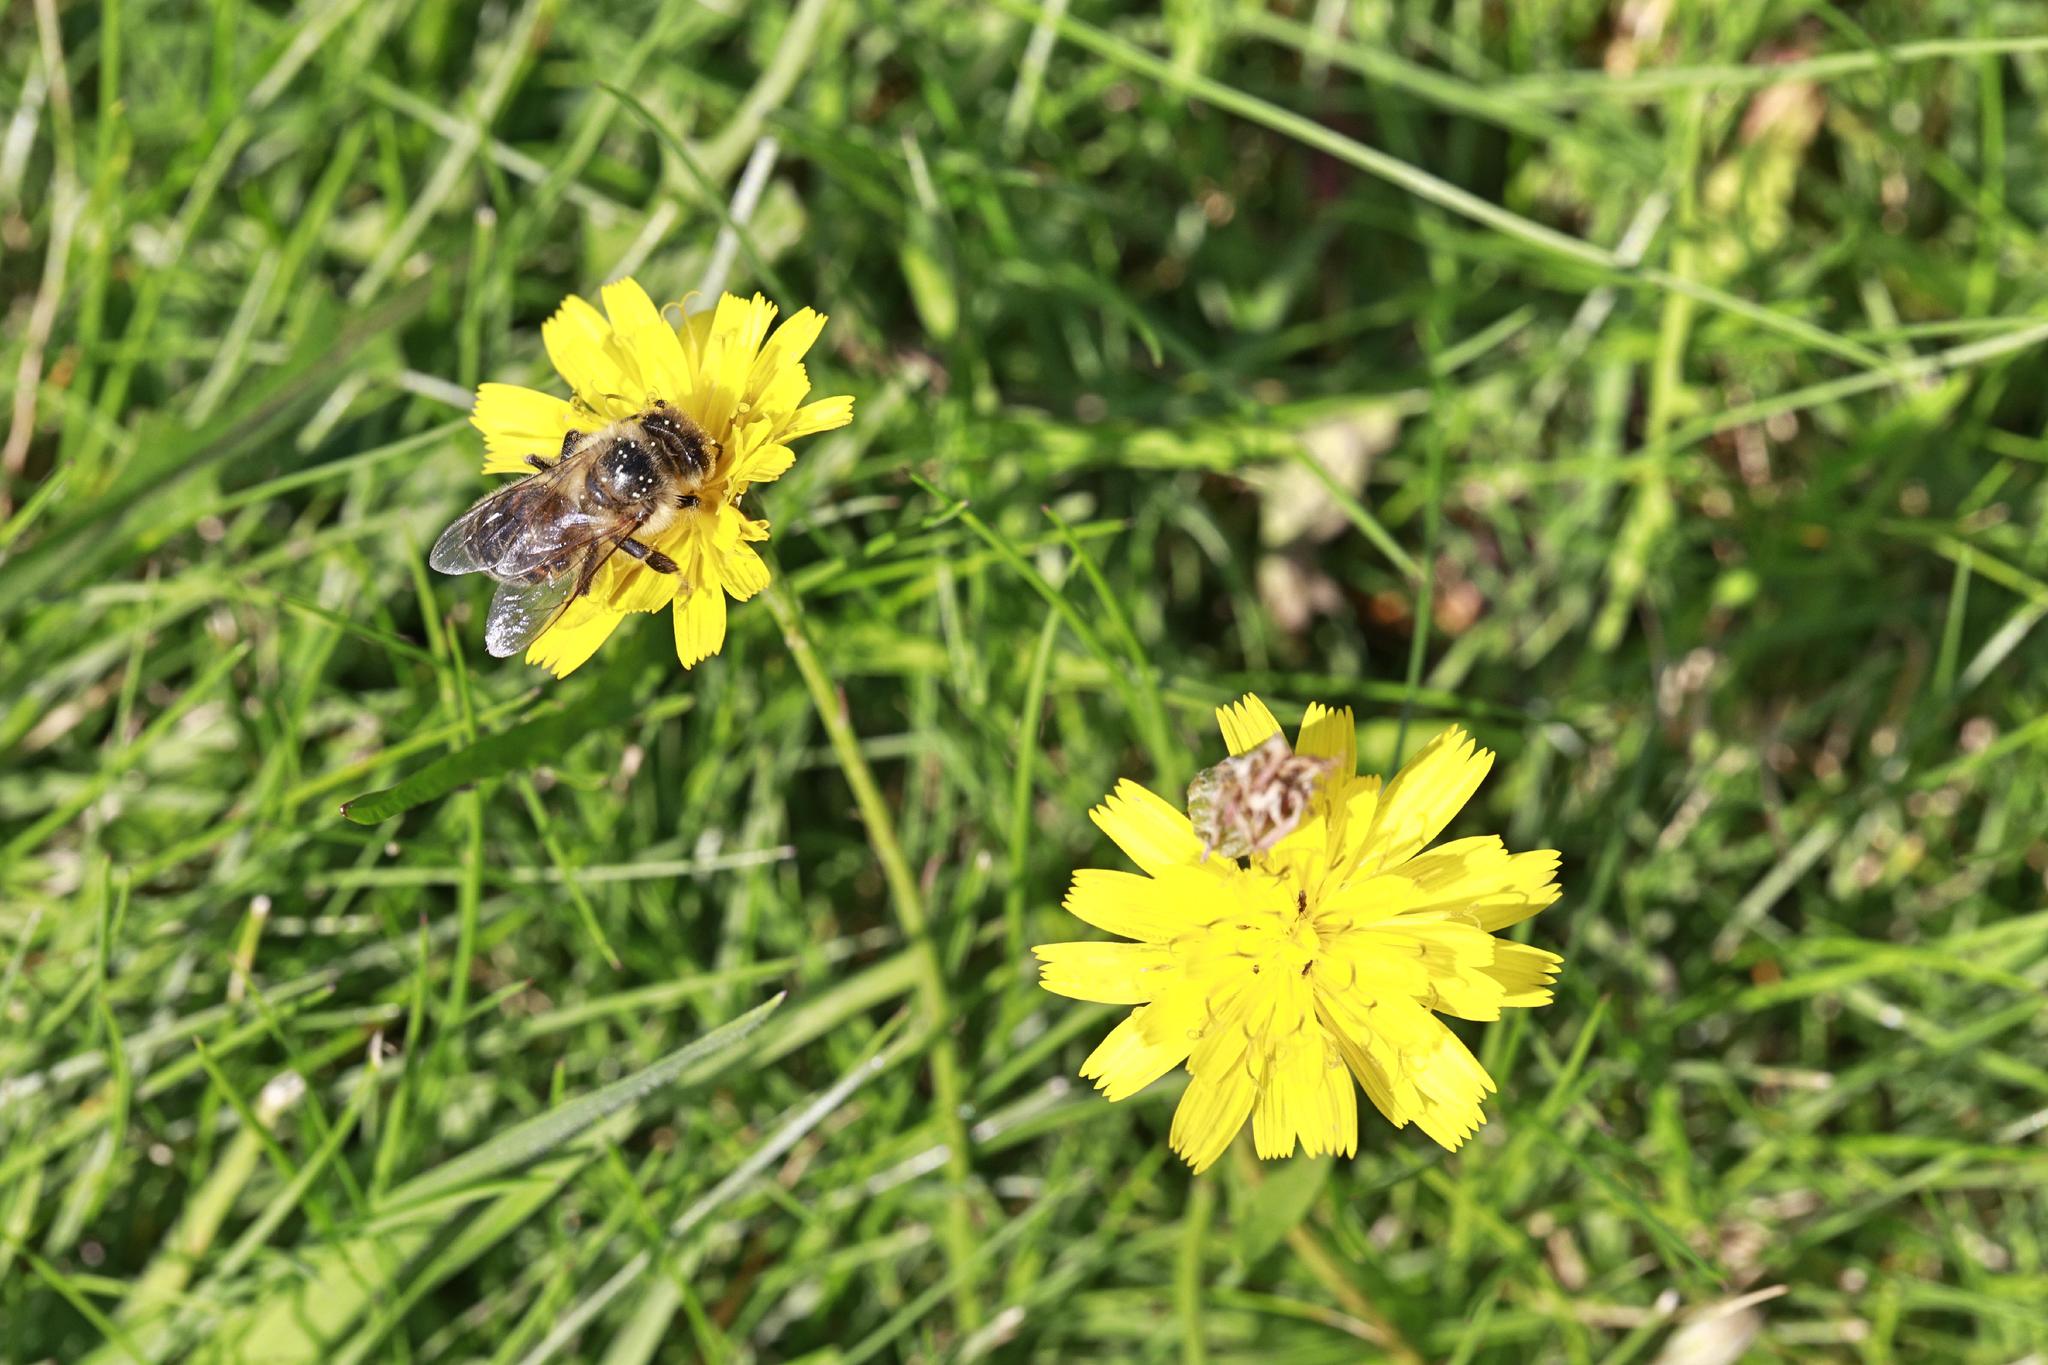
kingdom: Animalia
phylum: Arthropoda
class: Insecta
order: Hymenoptera
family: Apidae
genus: Apis
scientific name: Apis mellifera
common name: Honey bee
